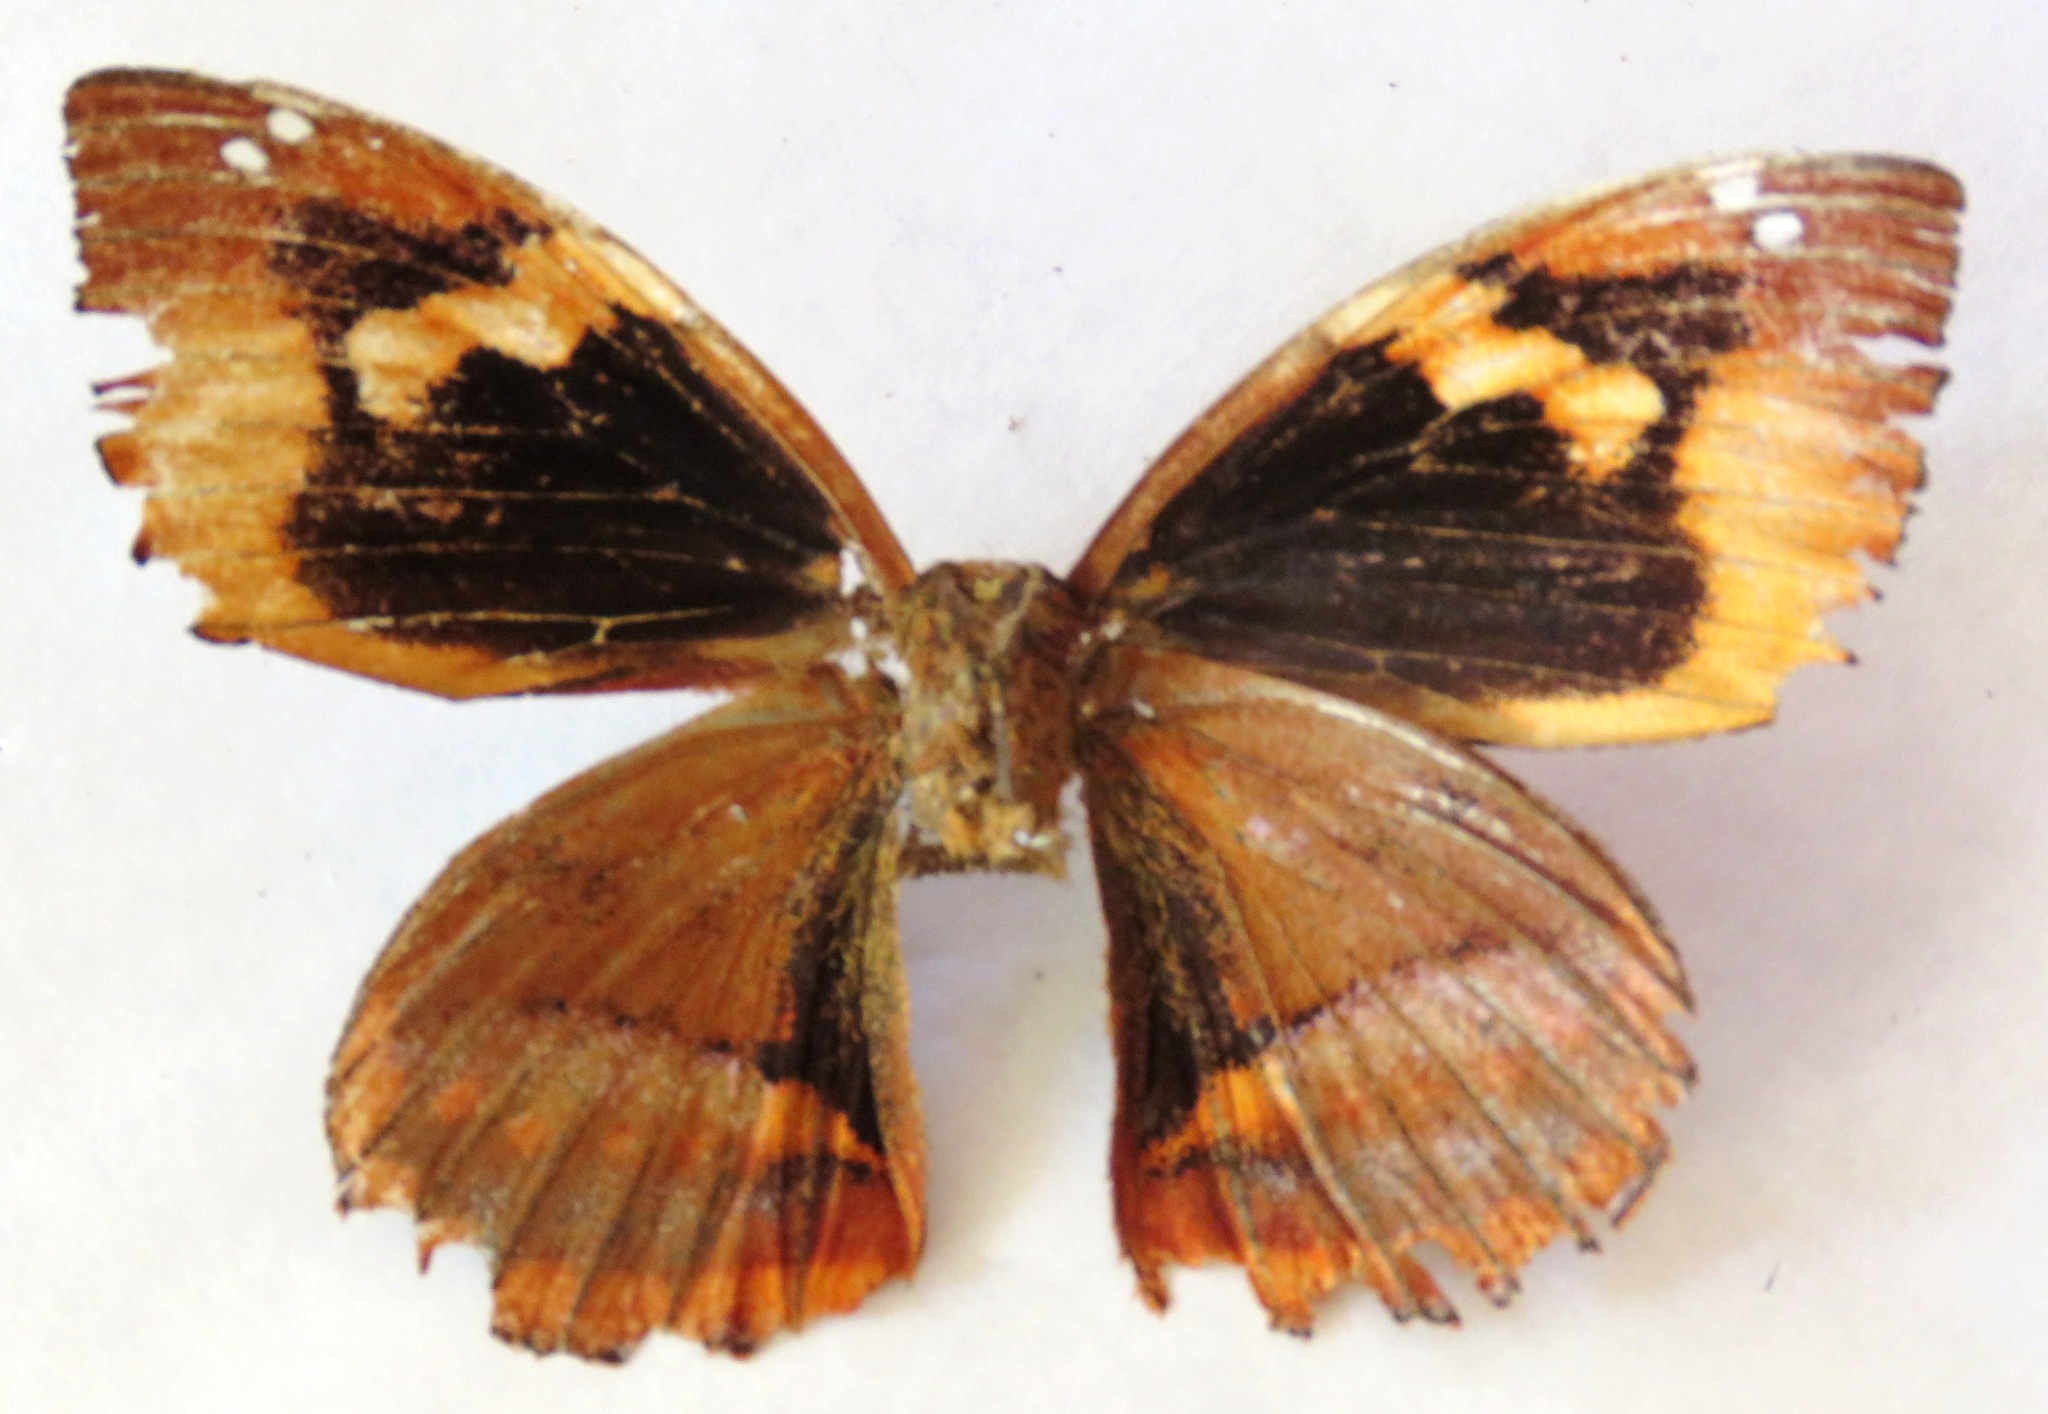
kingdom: Animalia
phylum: Arthropoda
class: Insecta
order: Lepidoptera
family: Castniidae
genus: Corybantes
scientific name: Corybantes veraguana
